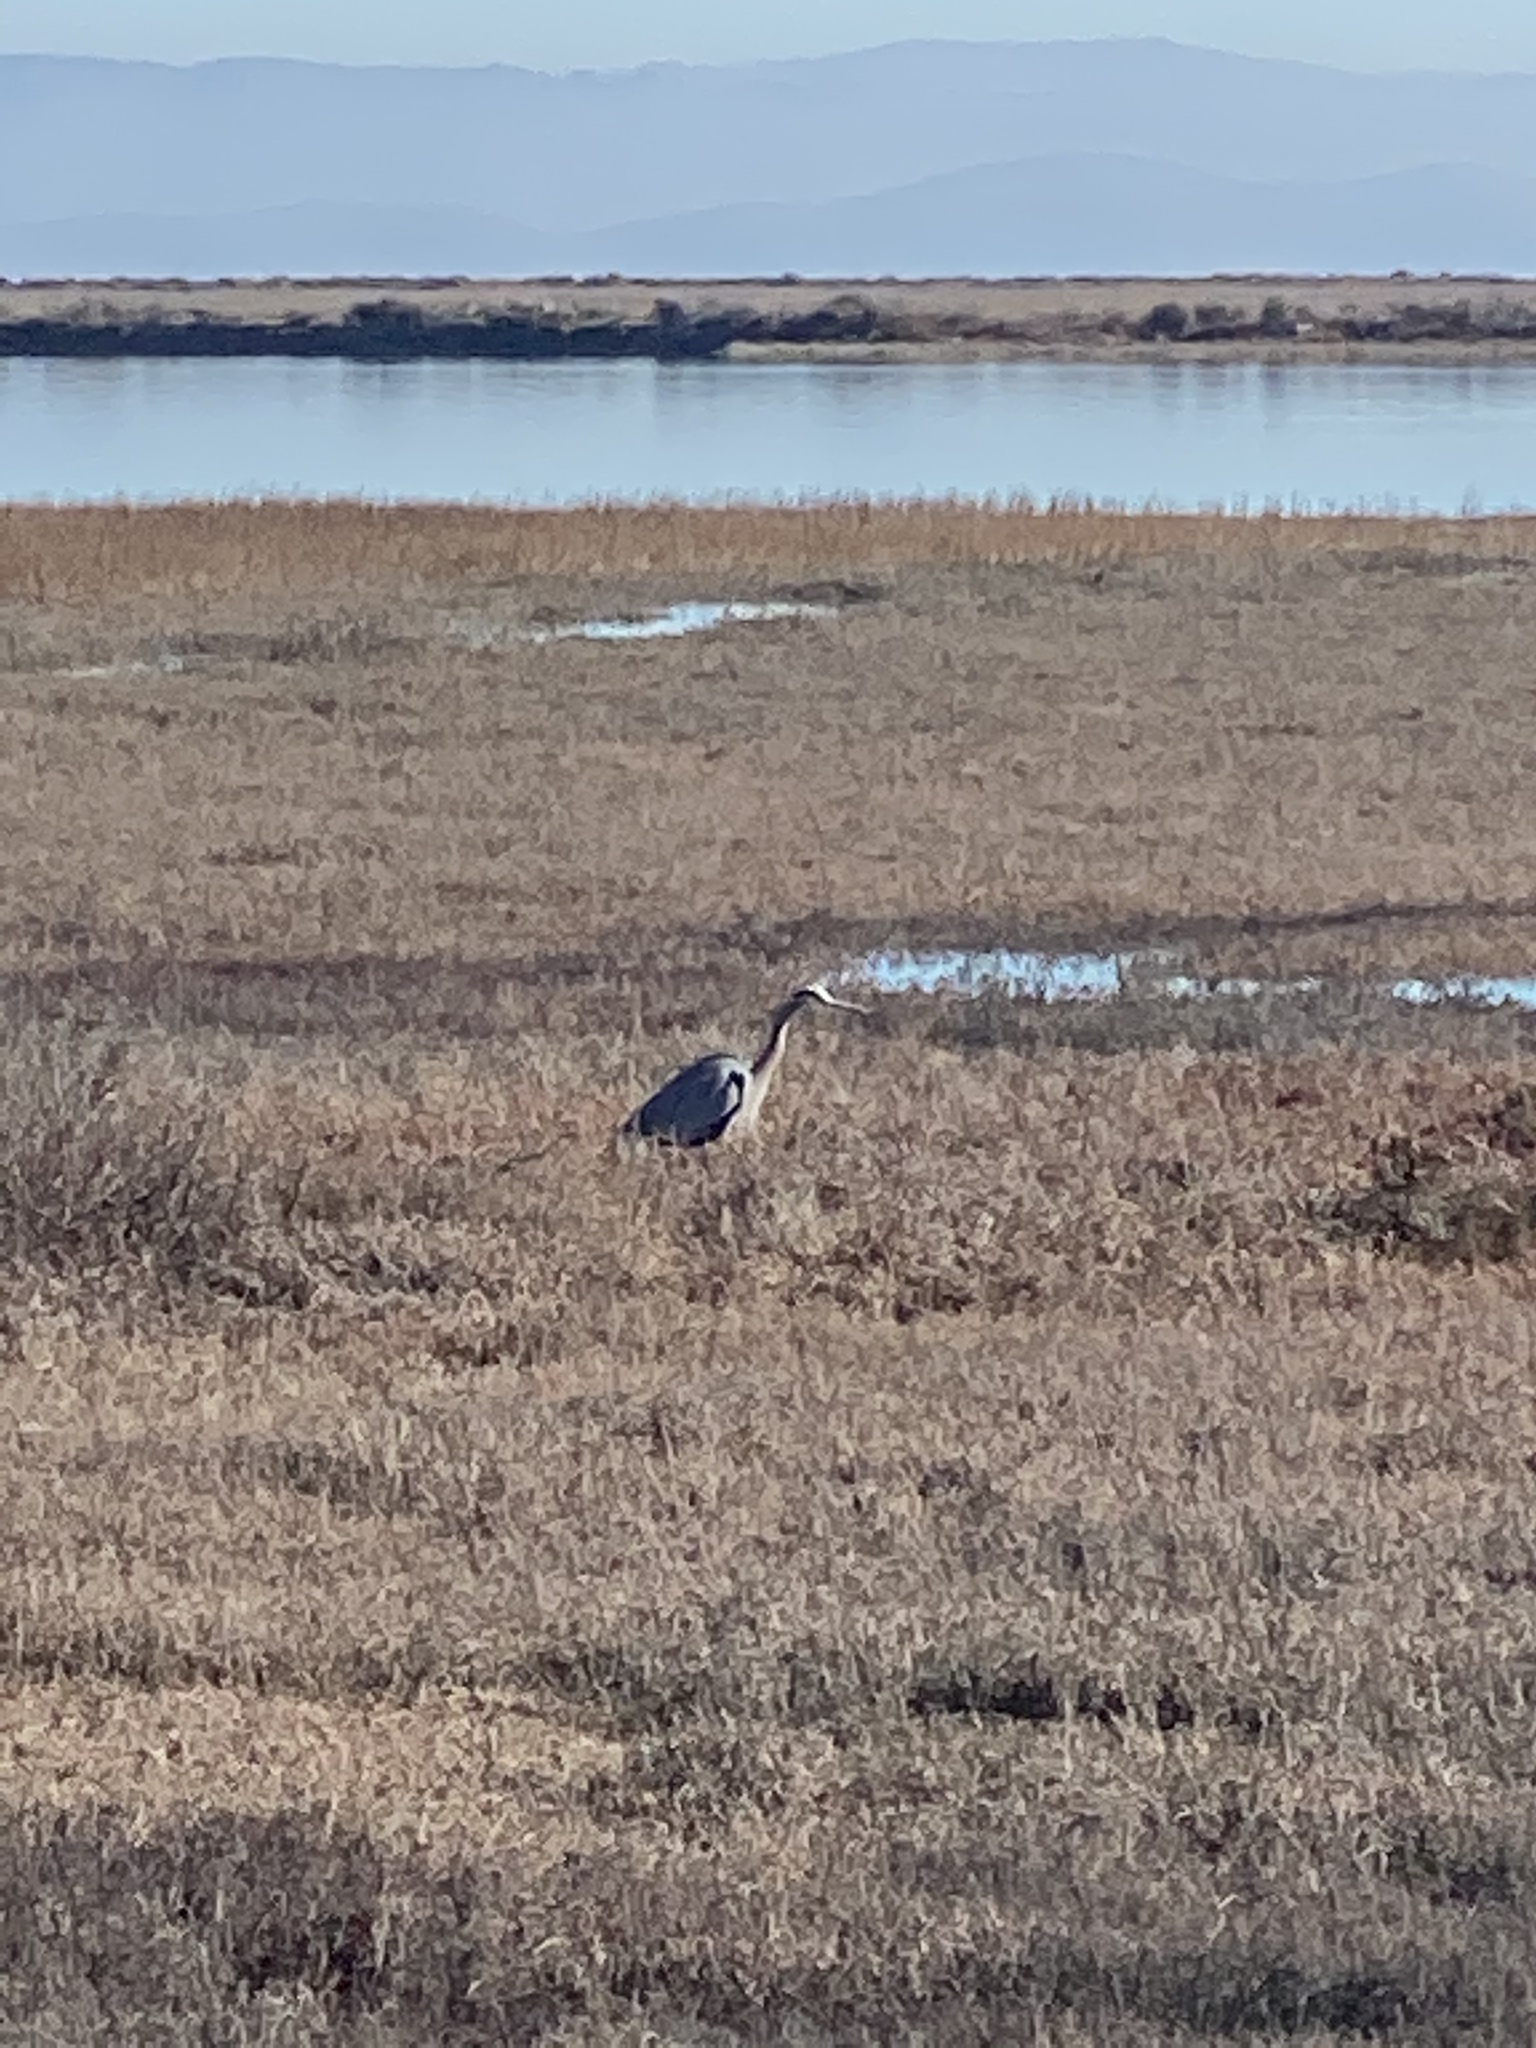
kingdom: Animalia
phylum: Chordata
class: Aves
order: Pelecaniformes
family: Ardeidae
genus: Ardea
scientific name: Ardea herodias
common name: Great blue heron
